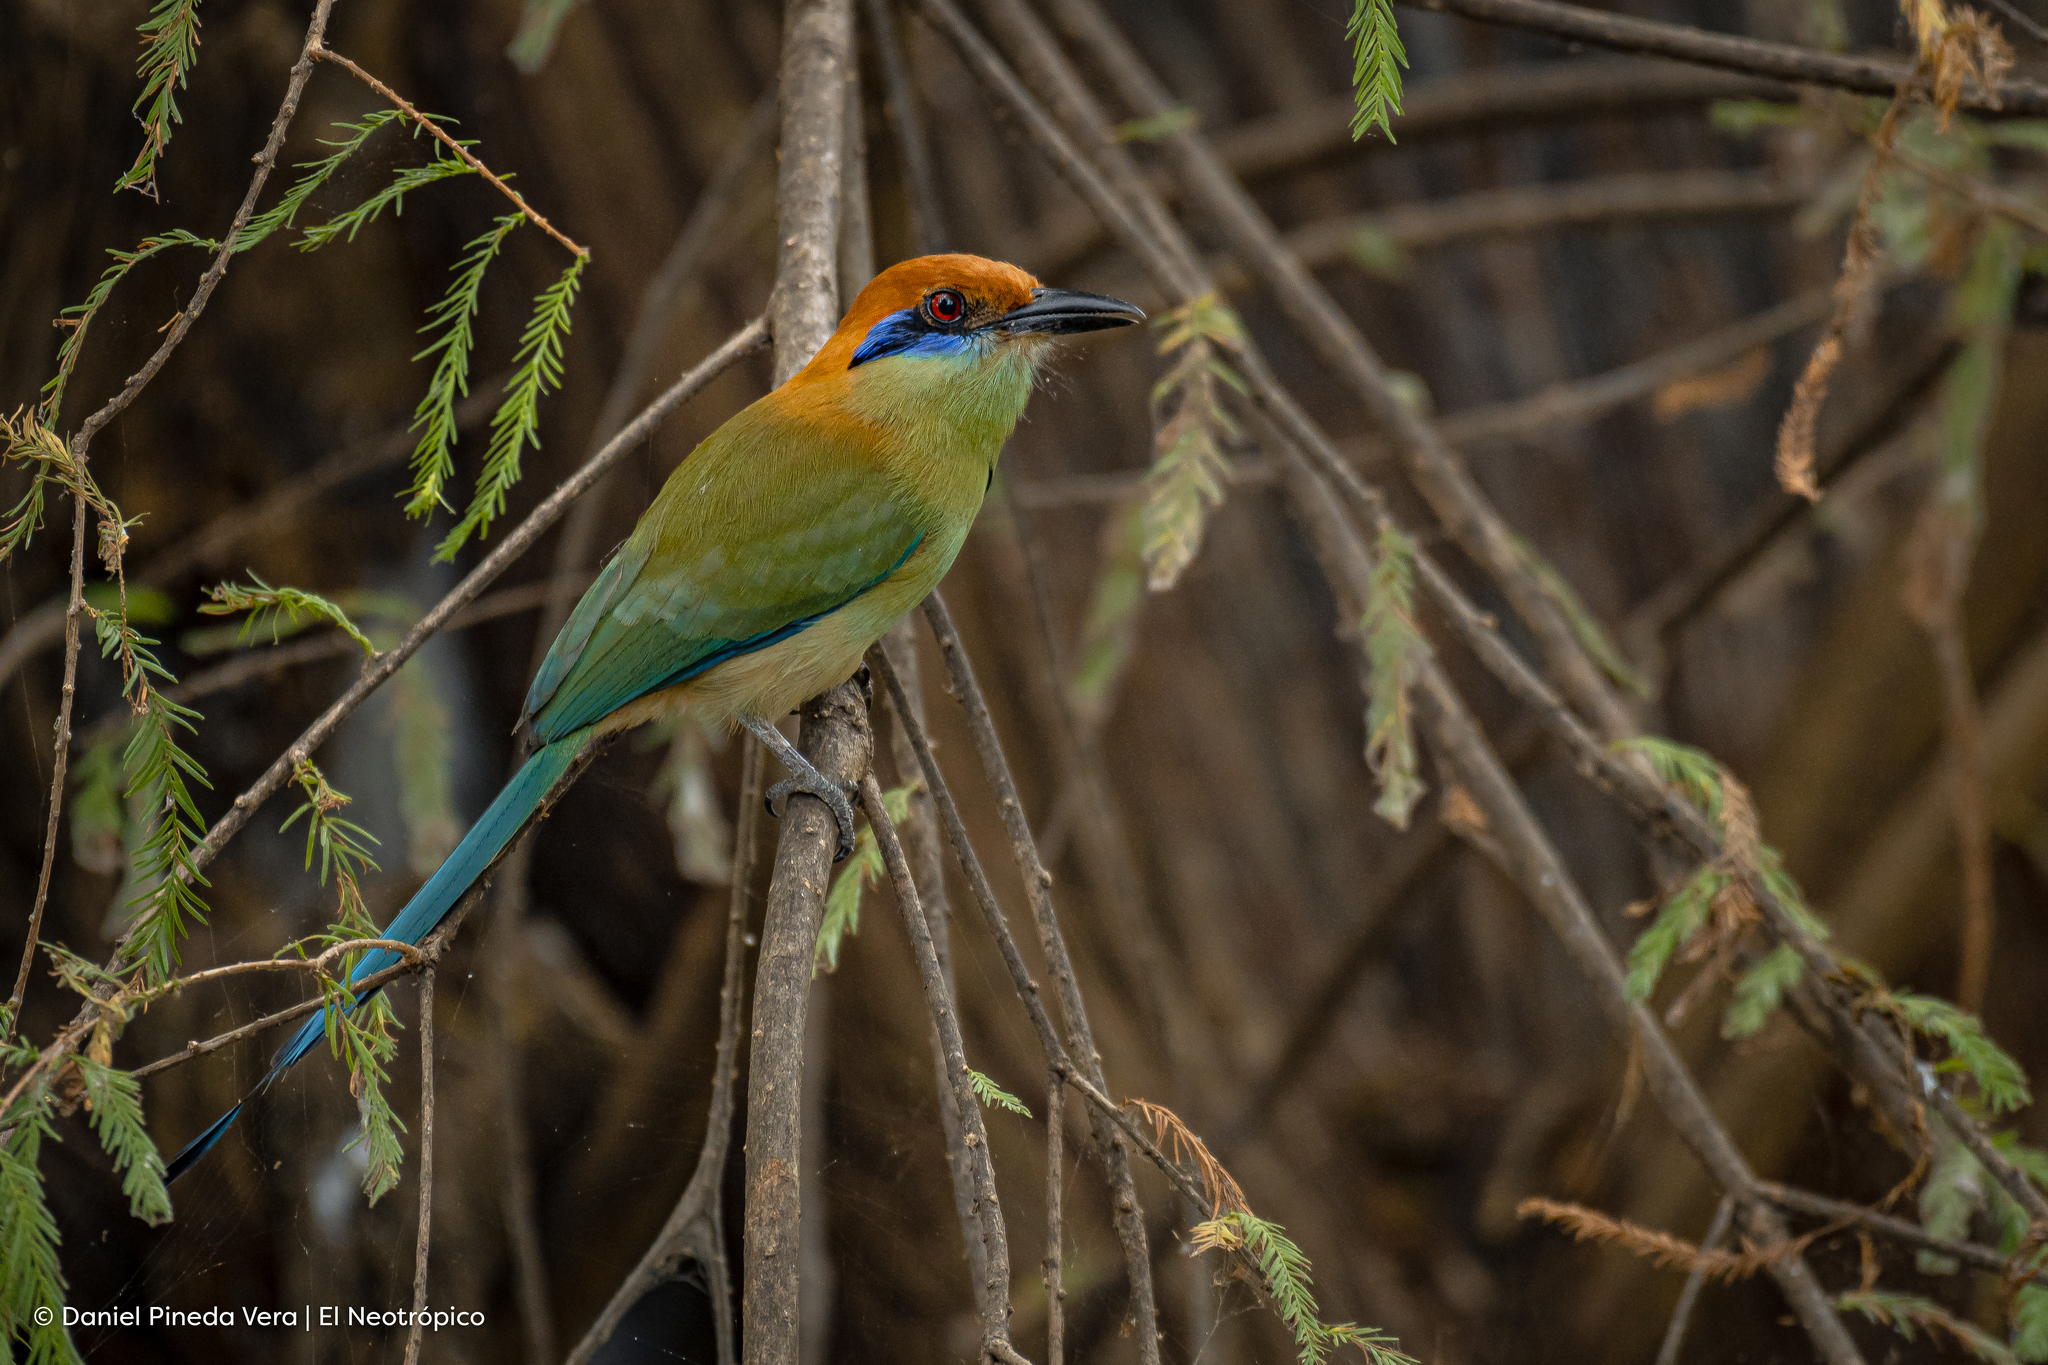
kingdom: Animalia
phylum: Chordata
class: Aves
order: Coraciiformes
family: Momotidae
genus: Momotus
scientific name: Momotus mexicanus
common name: Russet-crowned motmot
